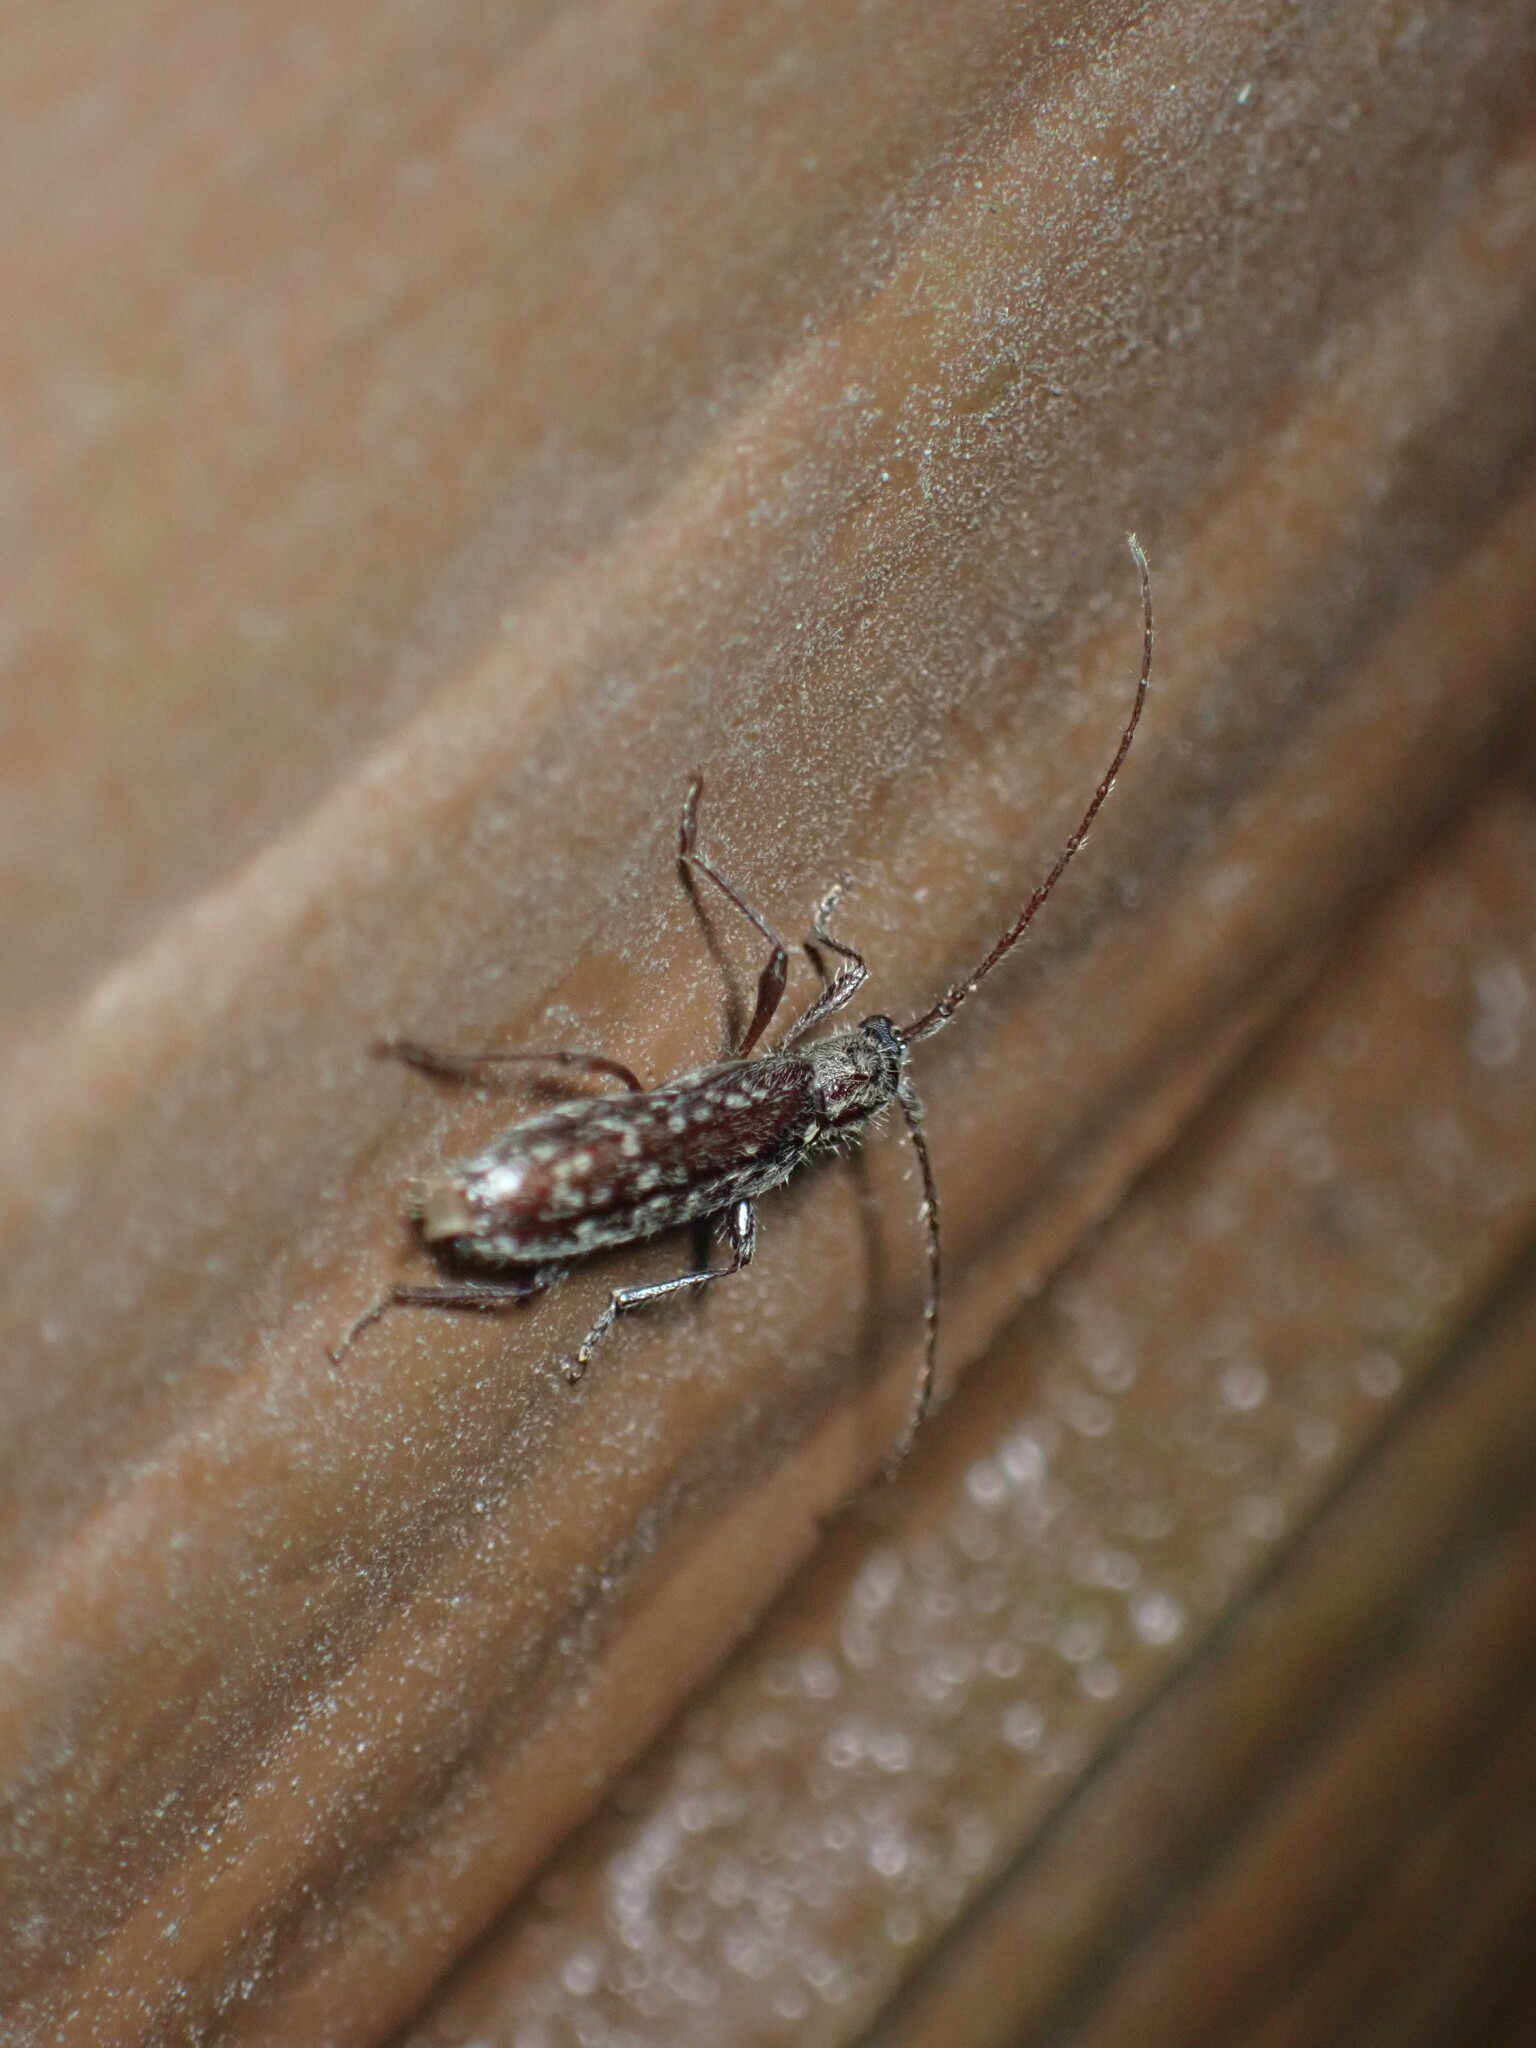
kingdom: Animalia
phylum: Arthropoda
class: Insecta
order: Coleoptera
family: Cerambycidae
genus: Anelaphus
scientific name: Anelaphus pumilus
